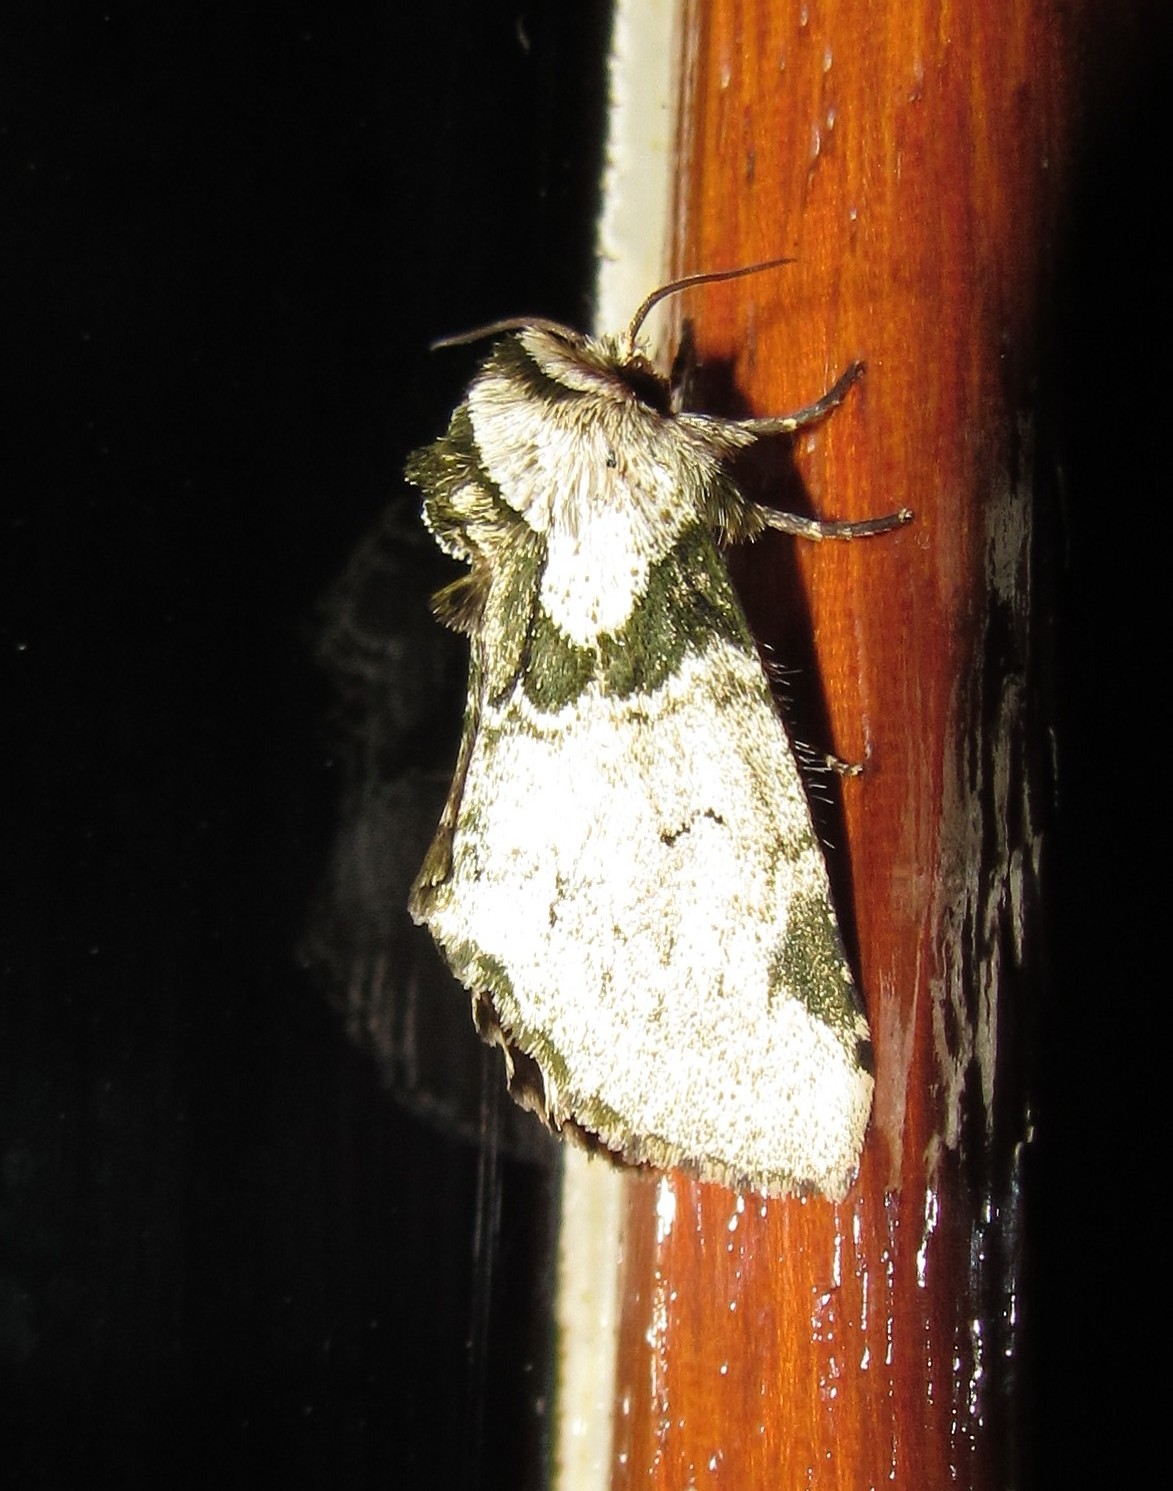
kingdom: Animalia
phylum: Arthropoda
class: Insecta
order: Lepidoptera
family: Notodontidae
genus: Disphragis
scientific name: Disphragis
